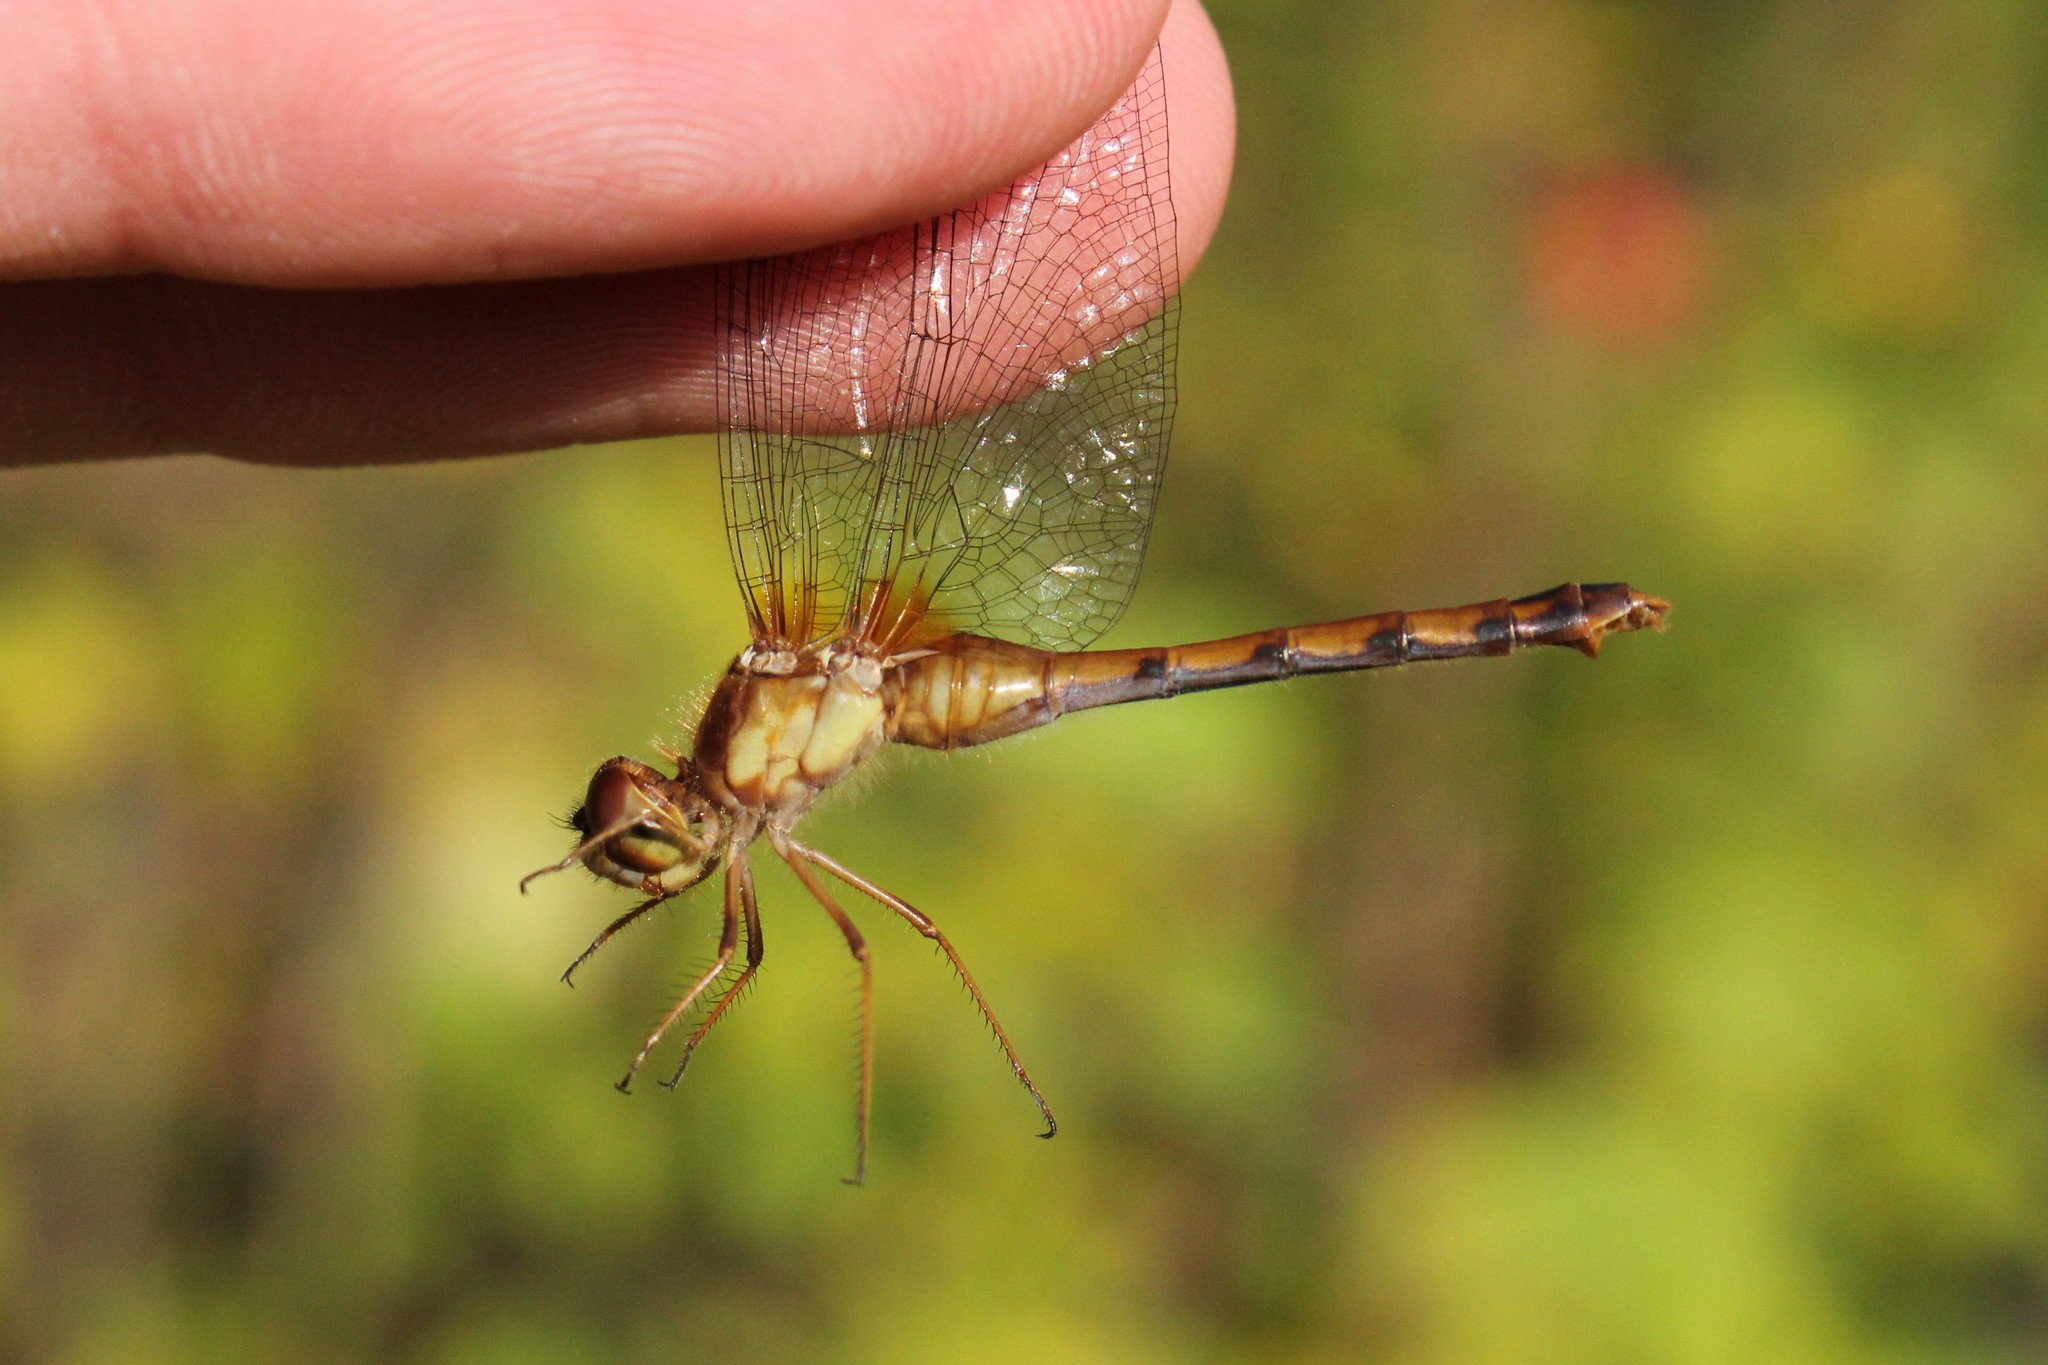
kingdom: Animalia
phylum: Arthropoda
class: Insecta
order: Odonata
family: Libellulidae
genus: Sympetrum
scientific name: Sympetrum vicinum
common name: Autumn meadowhawk
